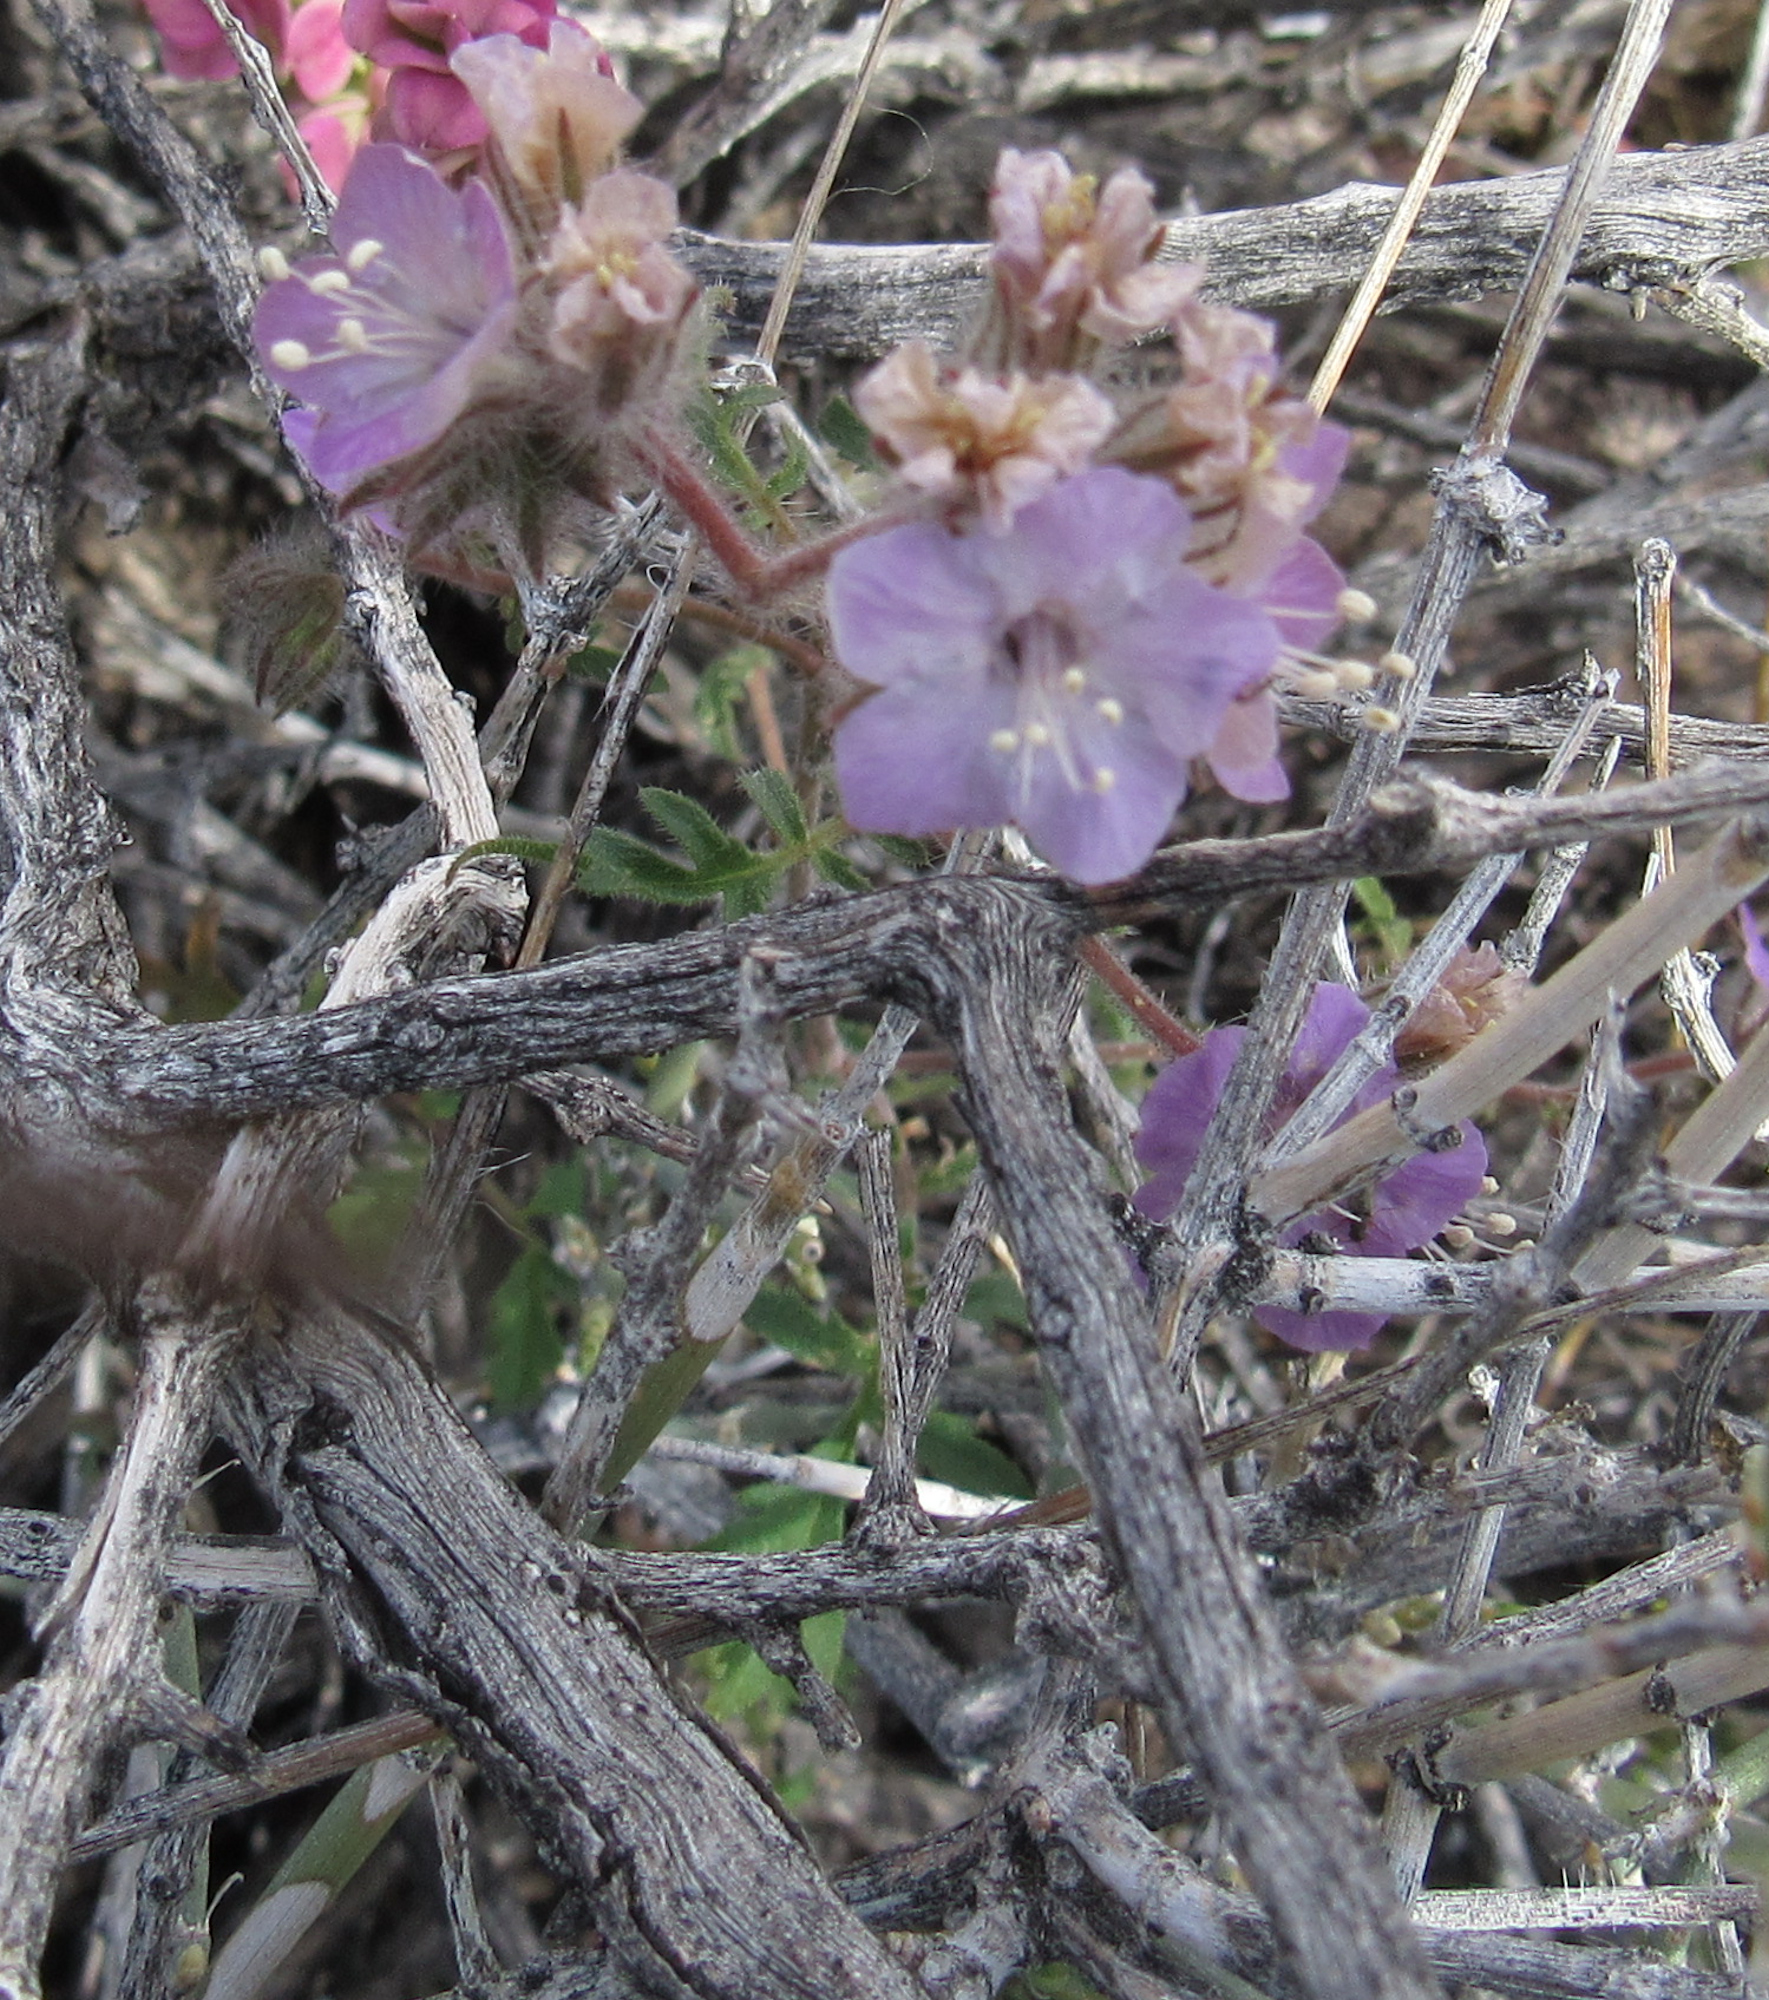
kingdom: Plantae
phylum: Tracheophyta
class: Magnoliopsida
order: Boraginales
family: Hydrophyllaceae
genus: Phacelia
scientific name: Phacelia vallis-mortae
